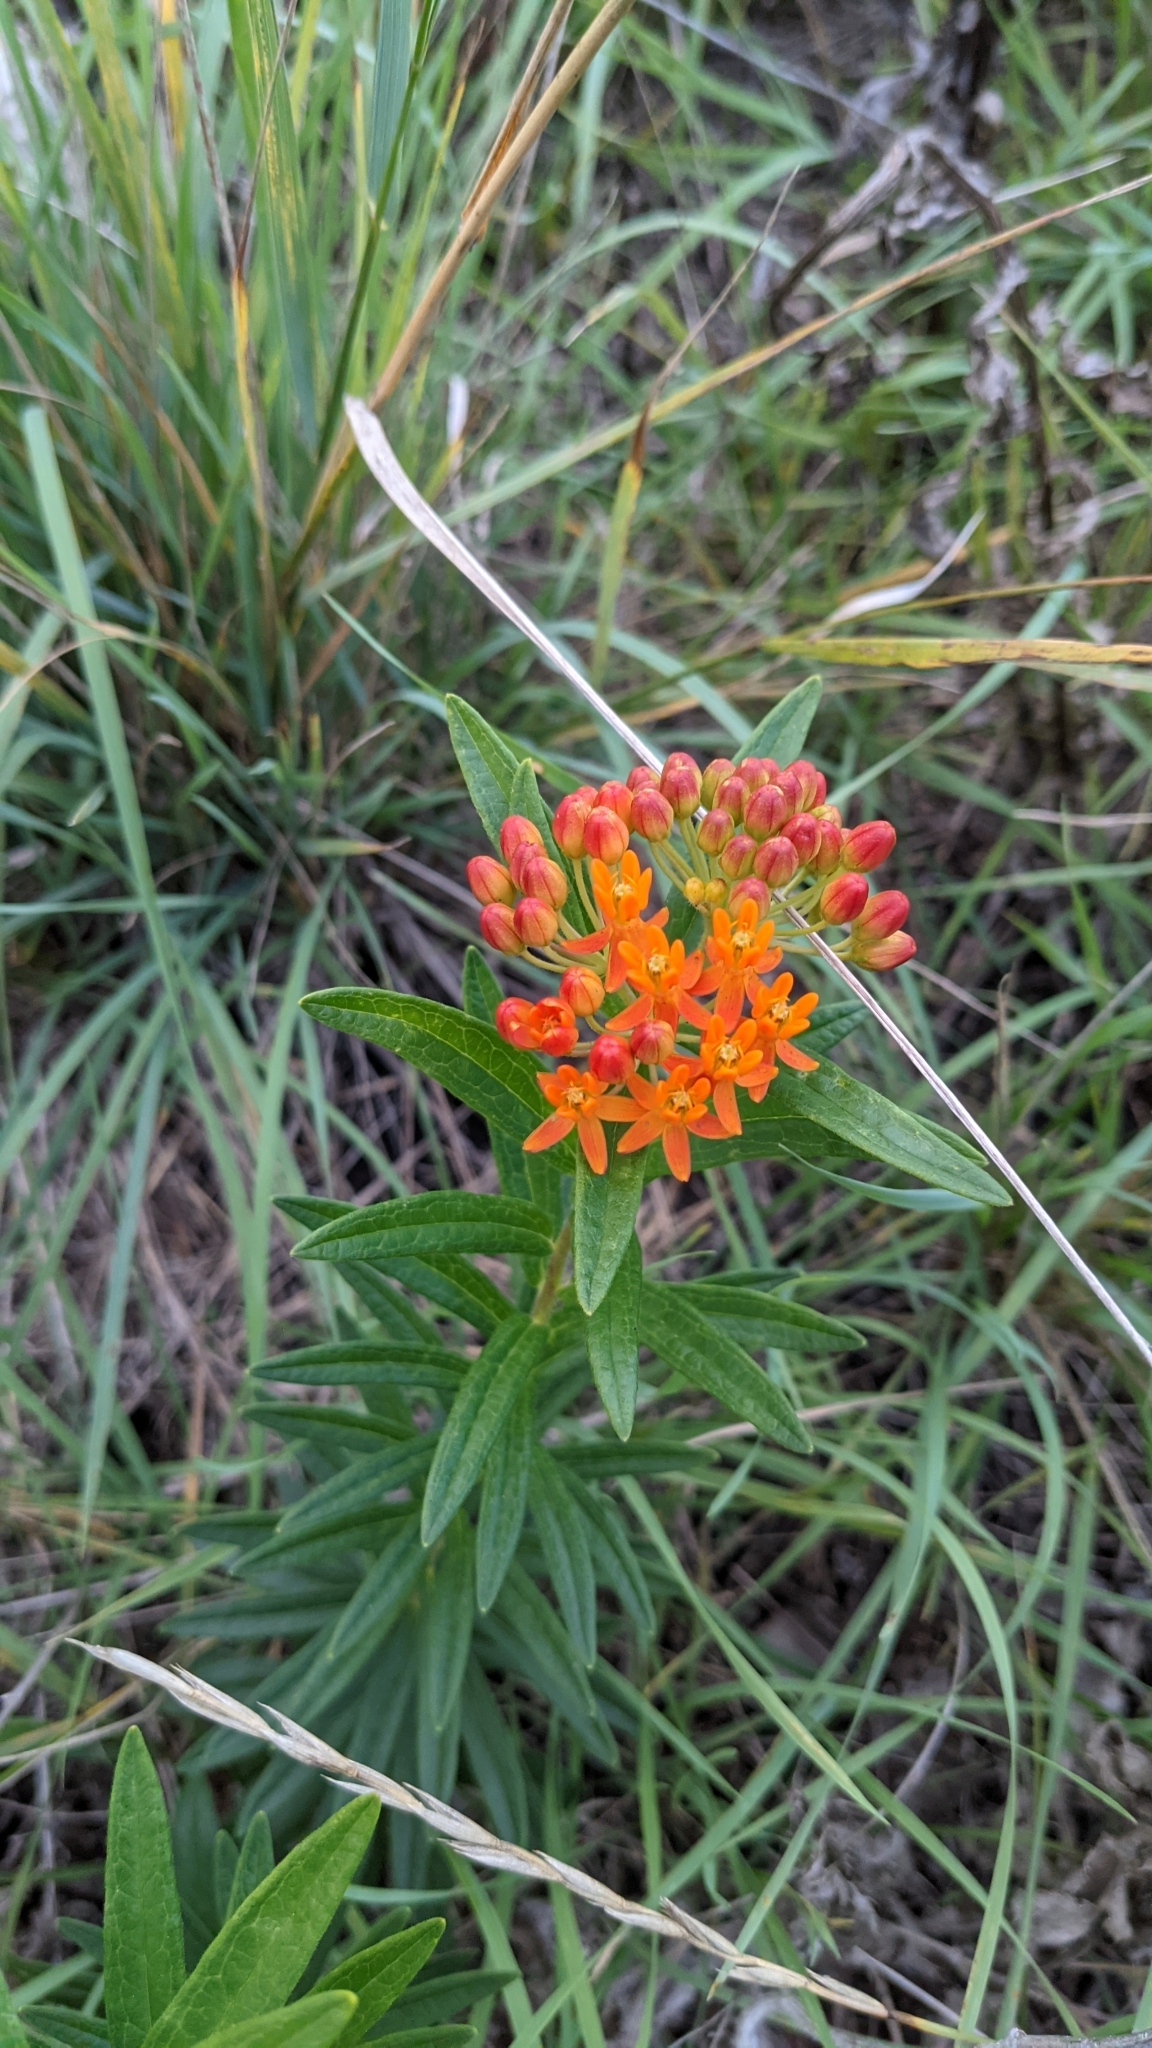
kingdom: Plantae
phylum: Tracheophyta
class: Magnoliopsida
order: Gentianales
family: Apocynaceae
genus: Asclepias
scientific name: Asclepias tuberosa
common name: Butterfly milkweed
